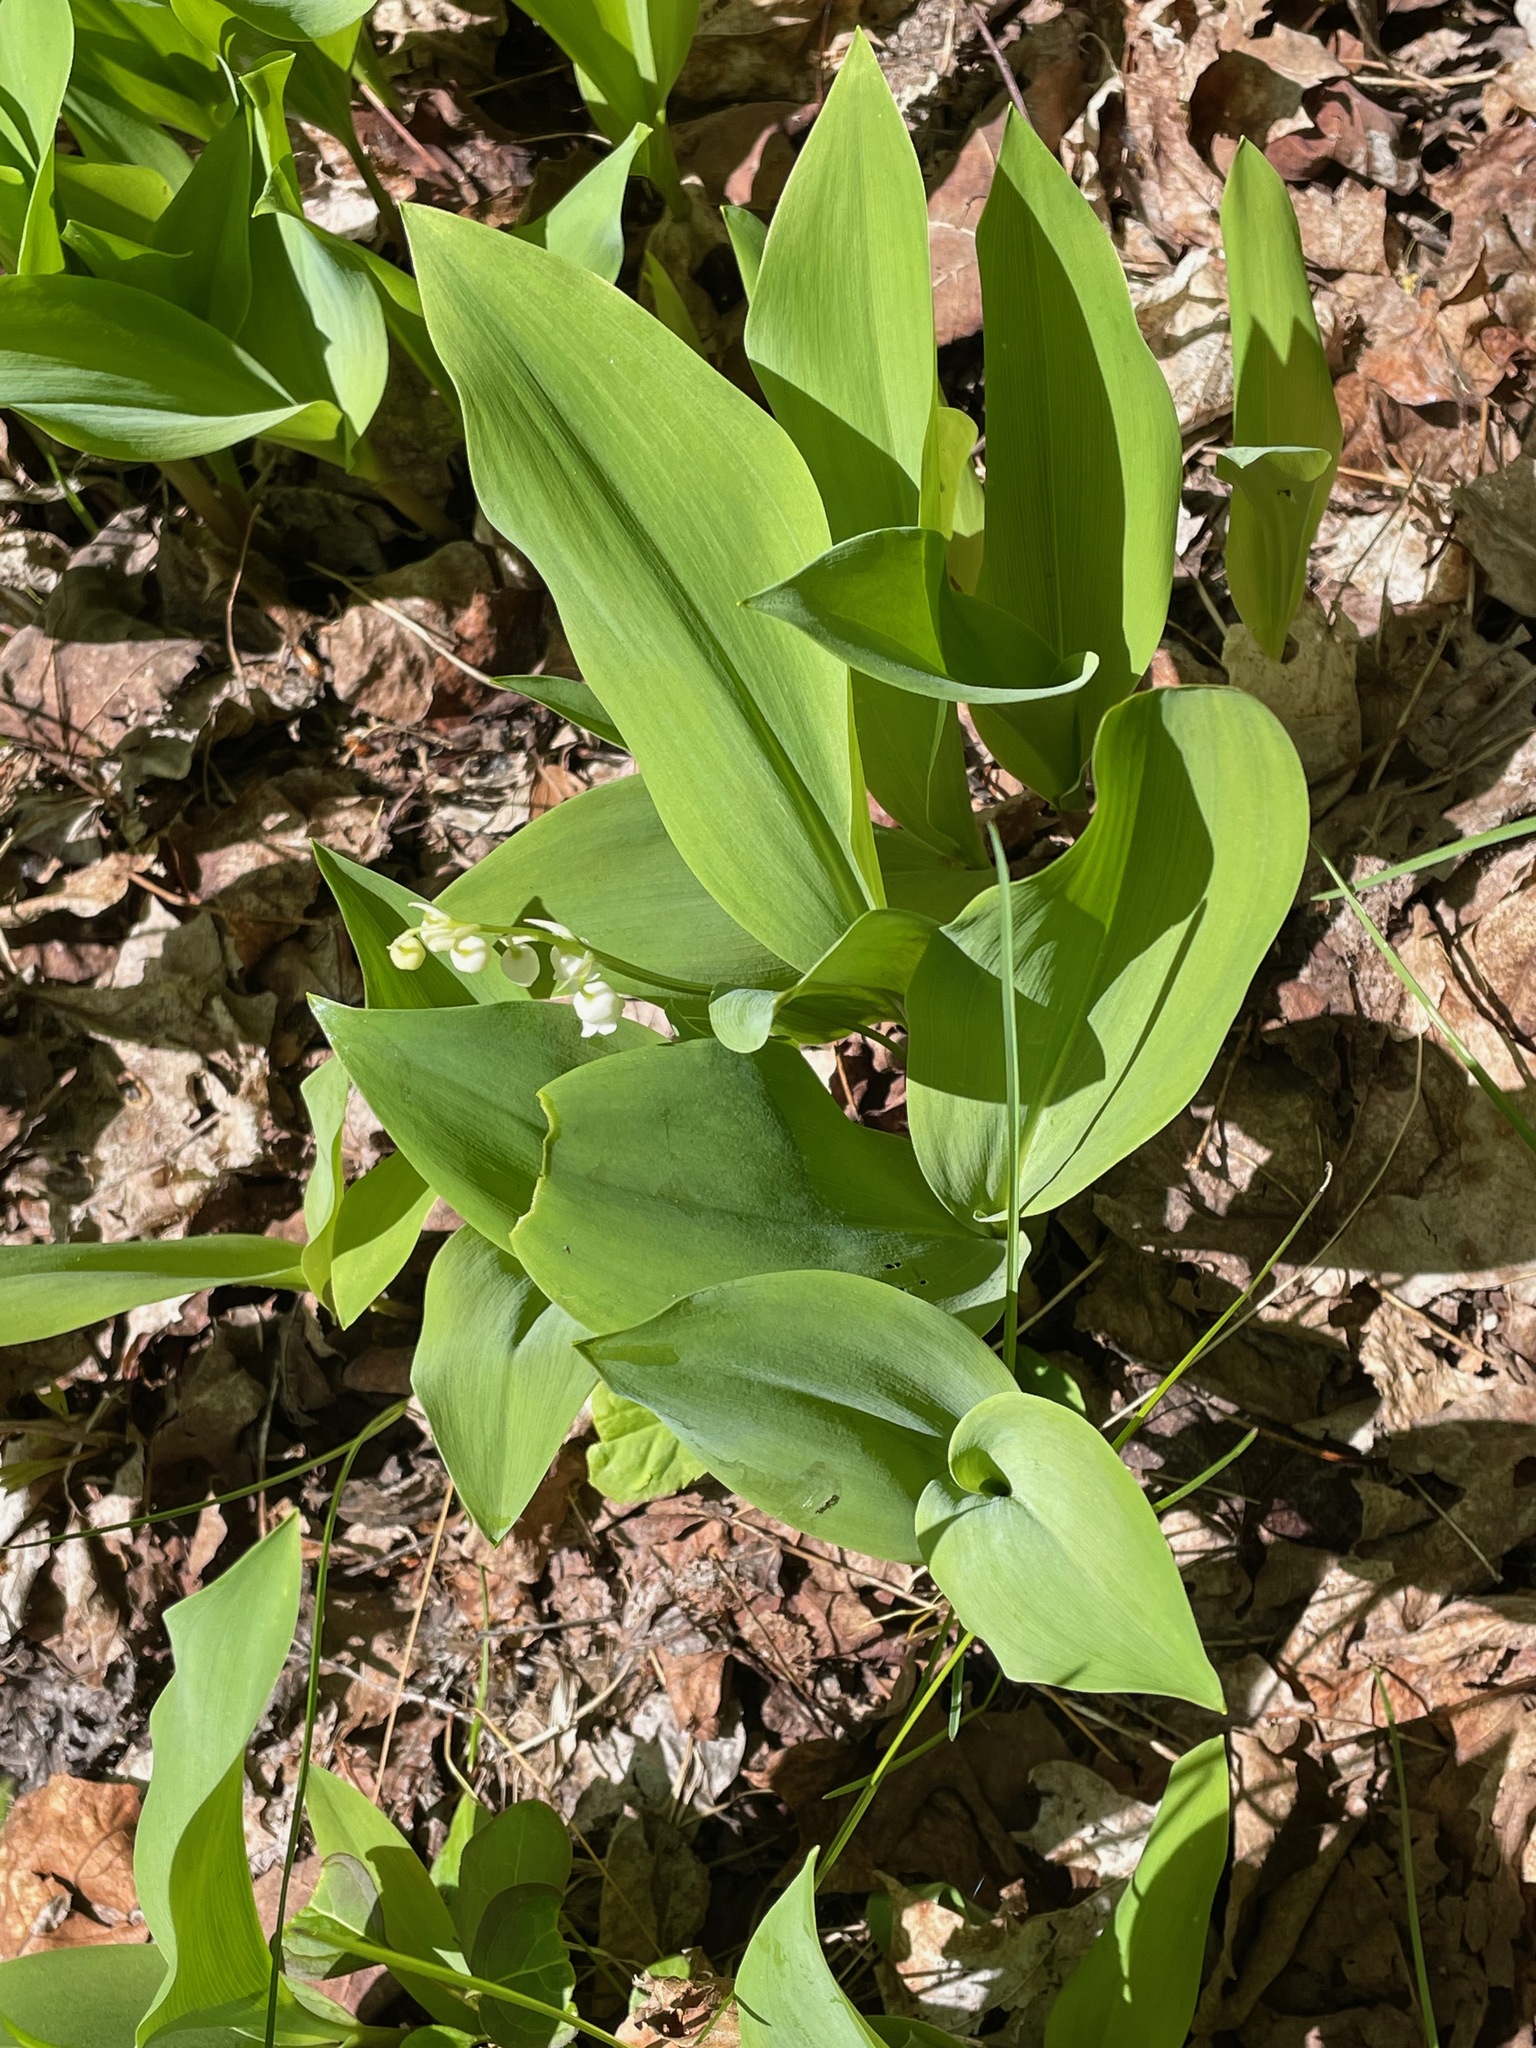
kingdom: Plantae
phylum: Tracheophyta
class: Liliopsida
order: Asparagales
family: Asparagaceae
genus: Convallaria
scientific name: Convallaria majalis
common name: Lily-of-the-valley
